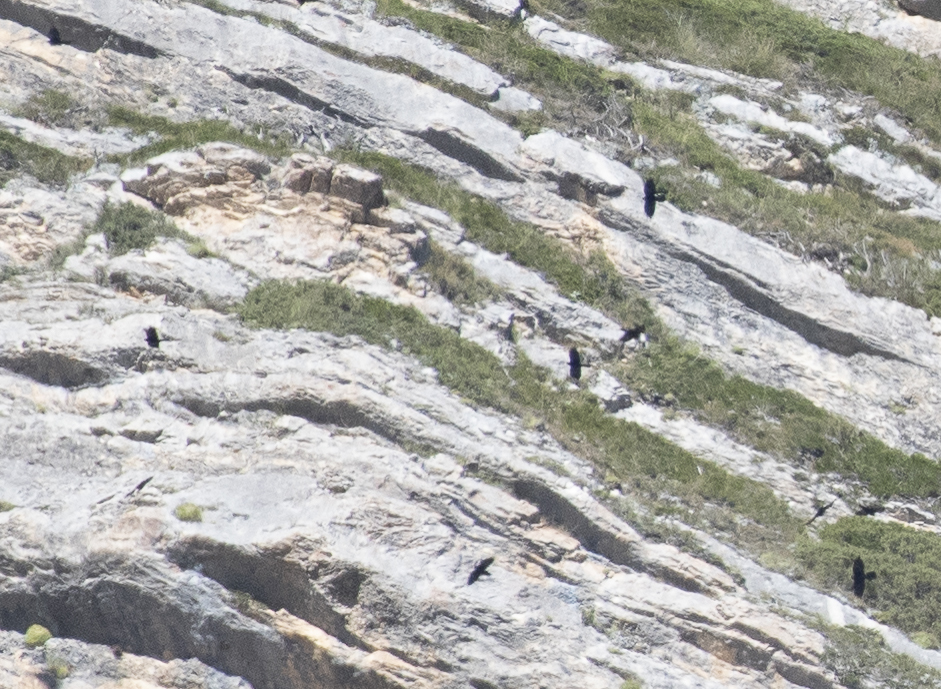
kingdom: Animalia
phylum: Chordata
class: Aves
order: Passeriformes
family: Corvidae
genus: Pyrrhocorax
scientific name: Pyrrhocorax graculus
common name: Alpine chough
